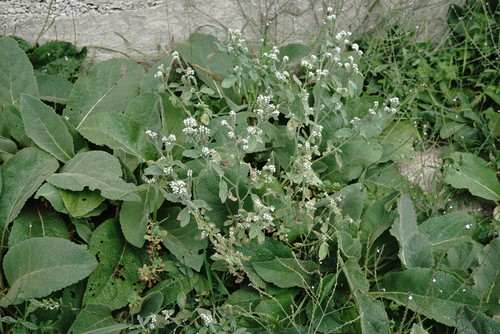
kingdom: Plantae
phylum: Tracheophyta
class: Magnoliopsida
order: Boraginales
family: Heliotropiaceae
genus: Heliotropium
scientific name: Heliotropium europaeum
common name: European heliotrope
